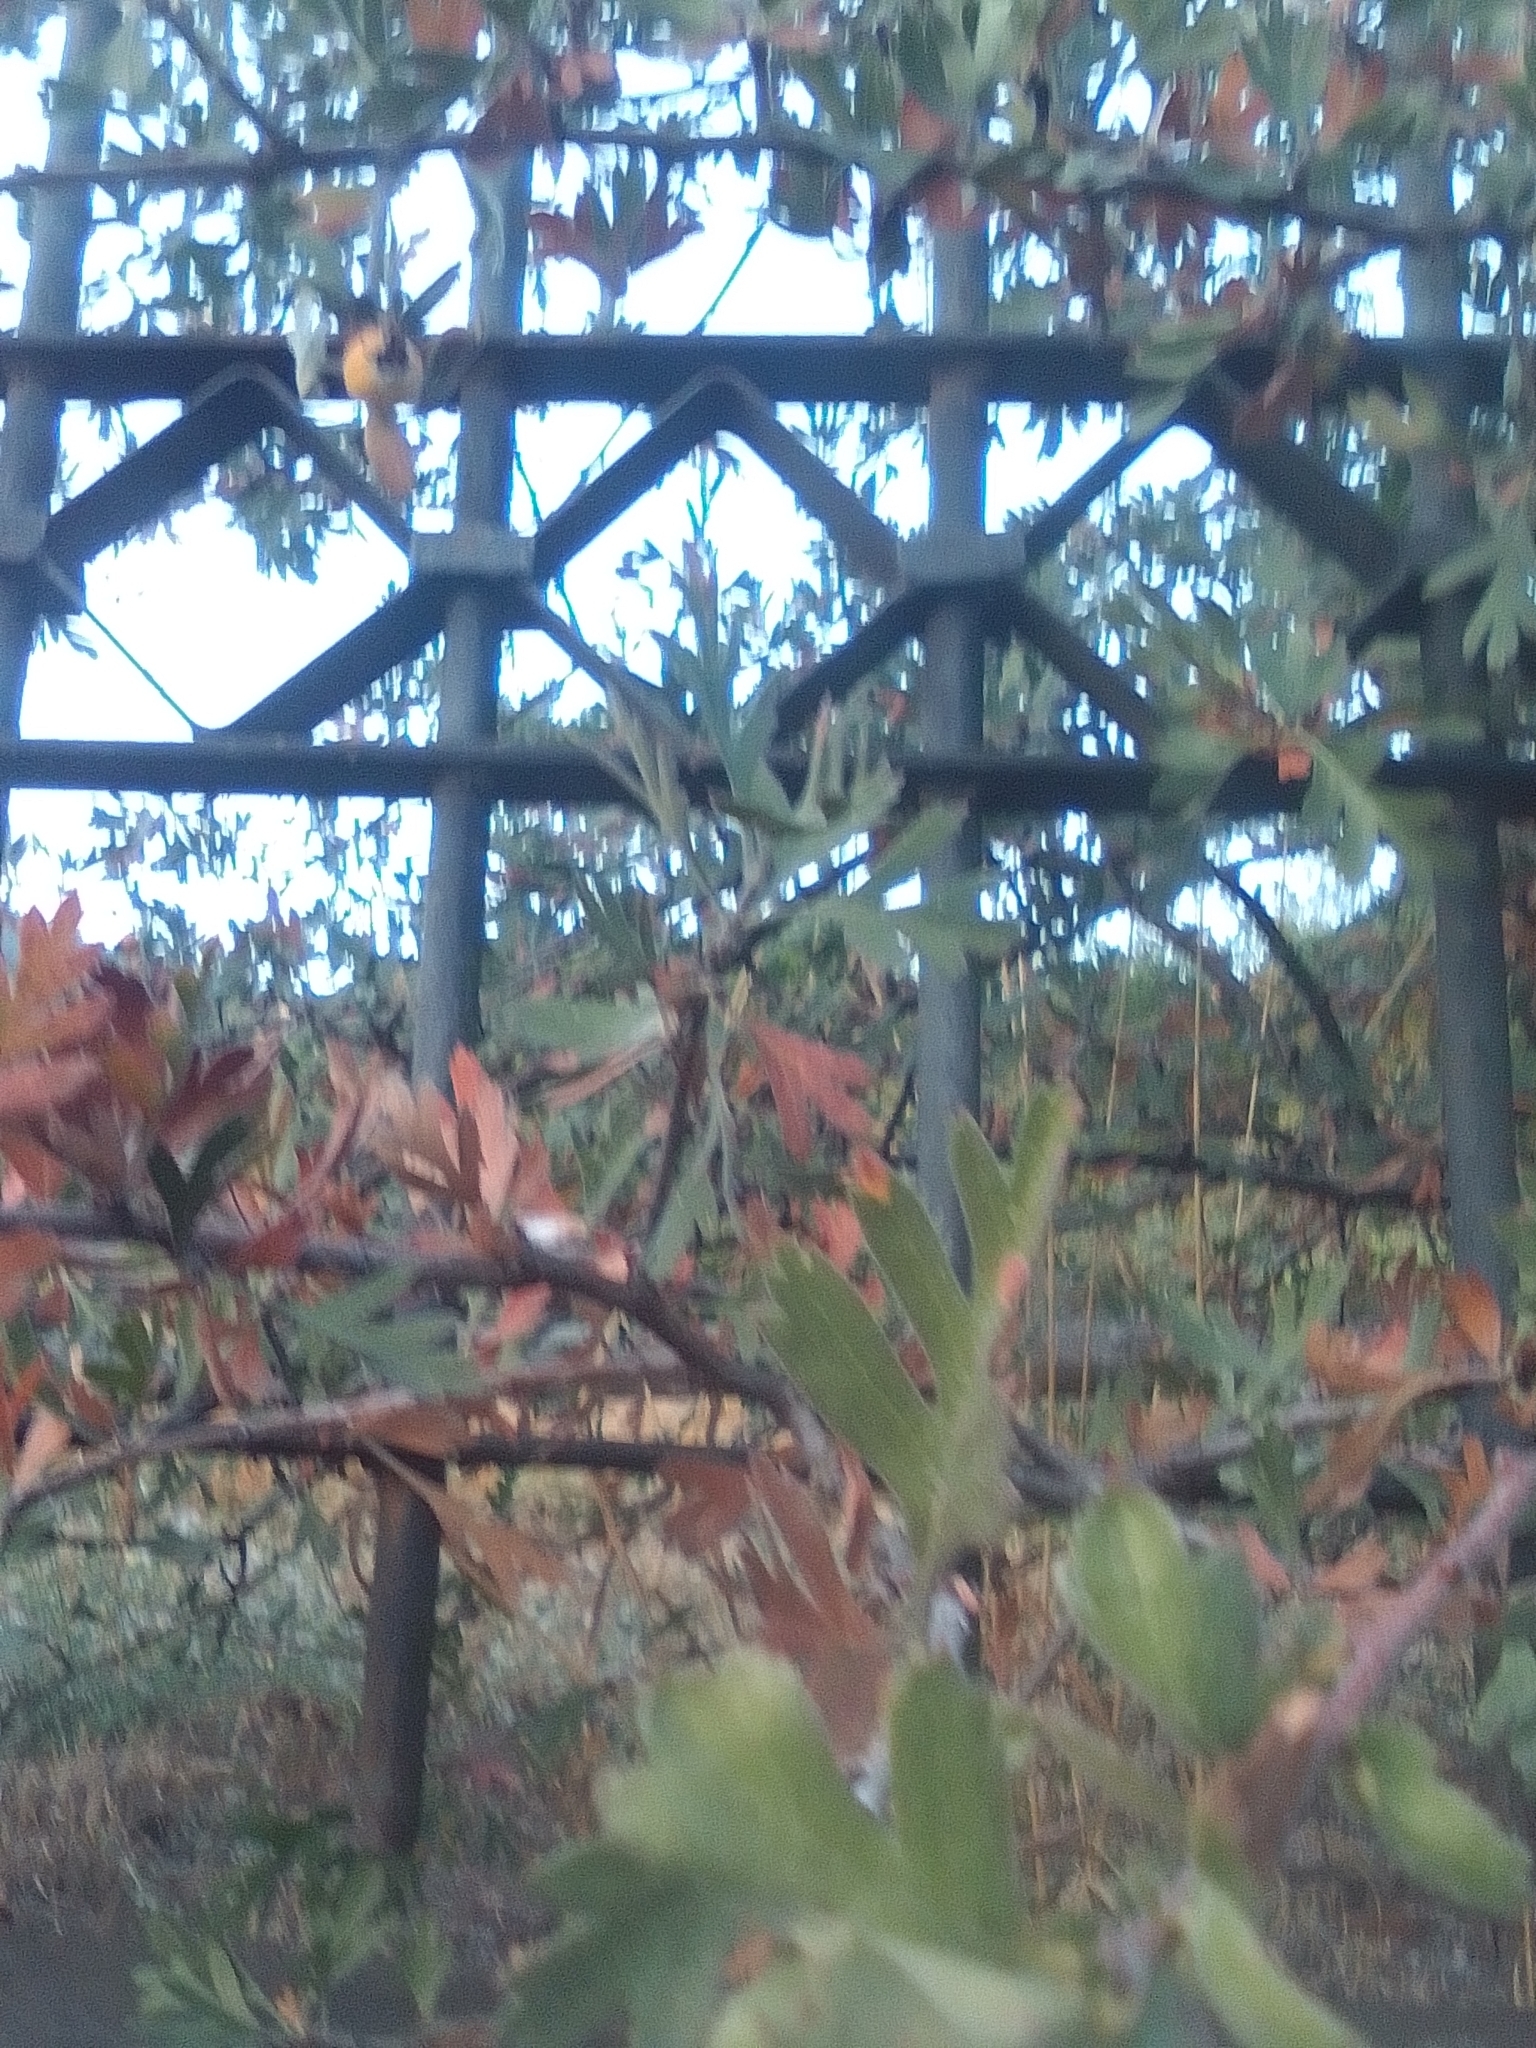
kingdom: Plantae
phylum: Tracheophyta
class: Magnoliopsida
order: Rosales
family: Rosaceae
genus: Crataegus
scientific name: Crataegus orientalis
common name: Oriental hawthorn
